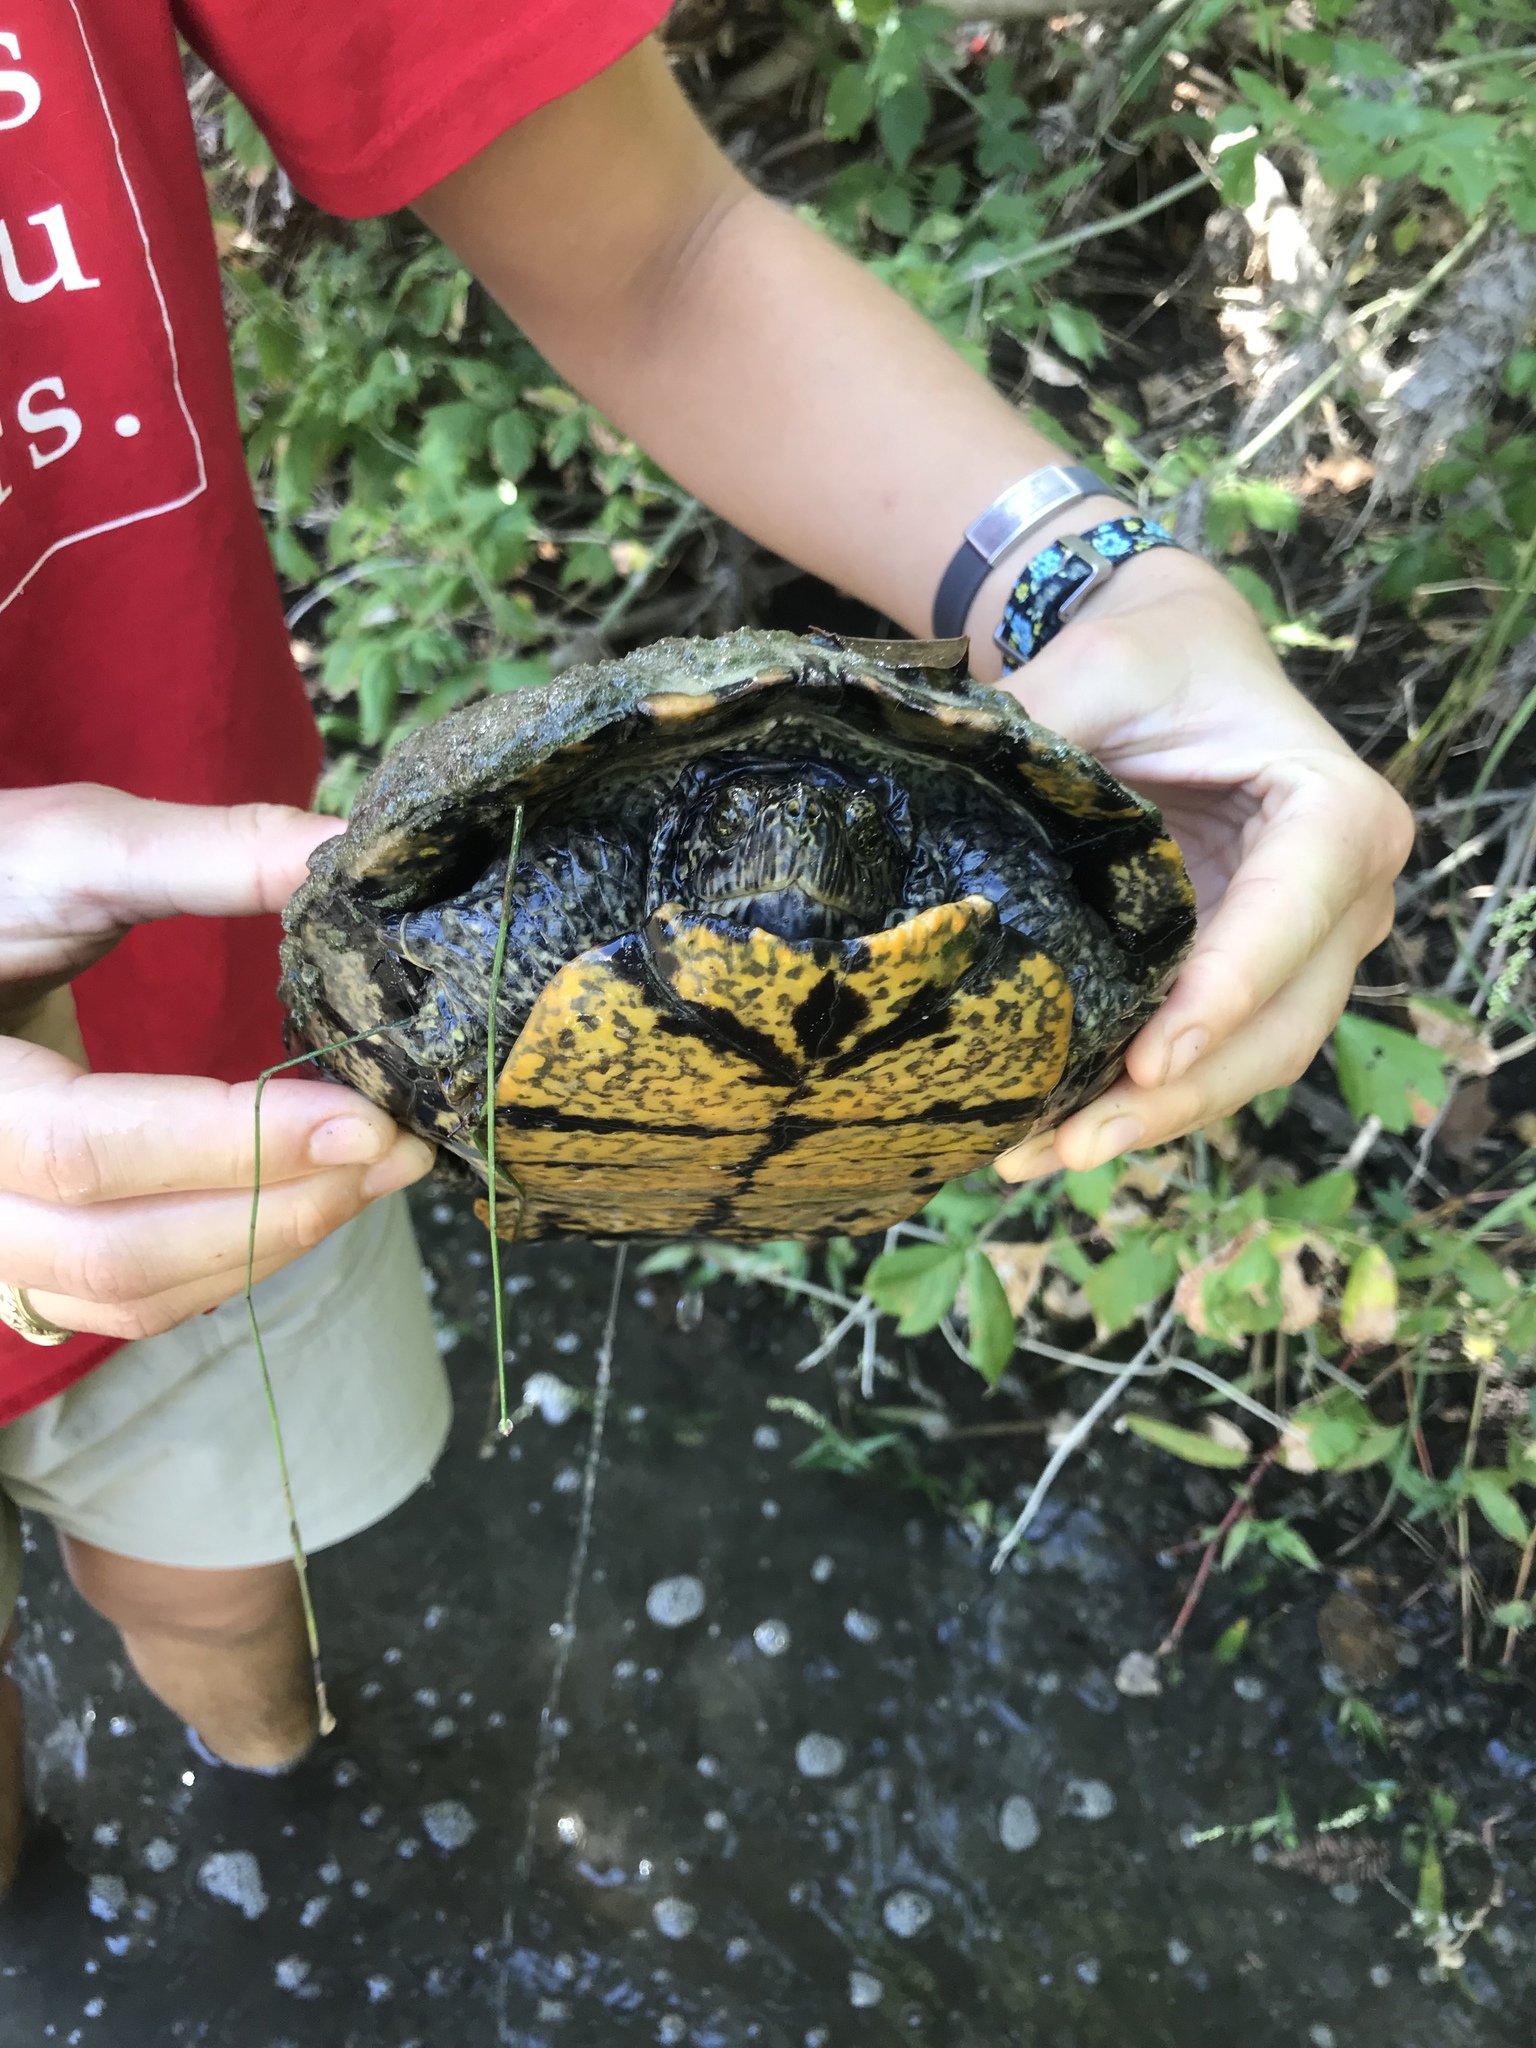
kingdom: Animalia
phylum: Chordata
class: Testudines
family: Emydidae
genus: Trachemys
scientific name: Trachemys scripta
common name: Slider
